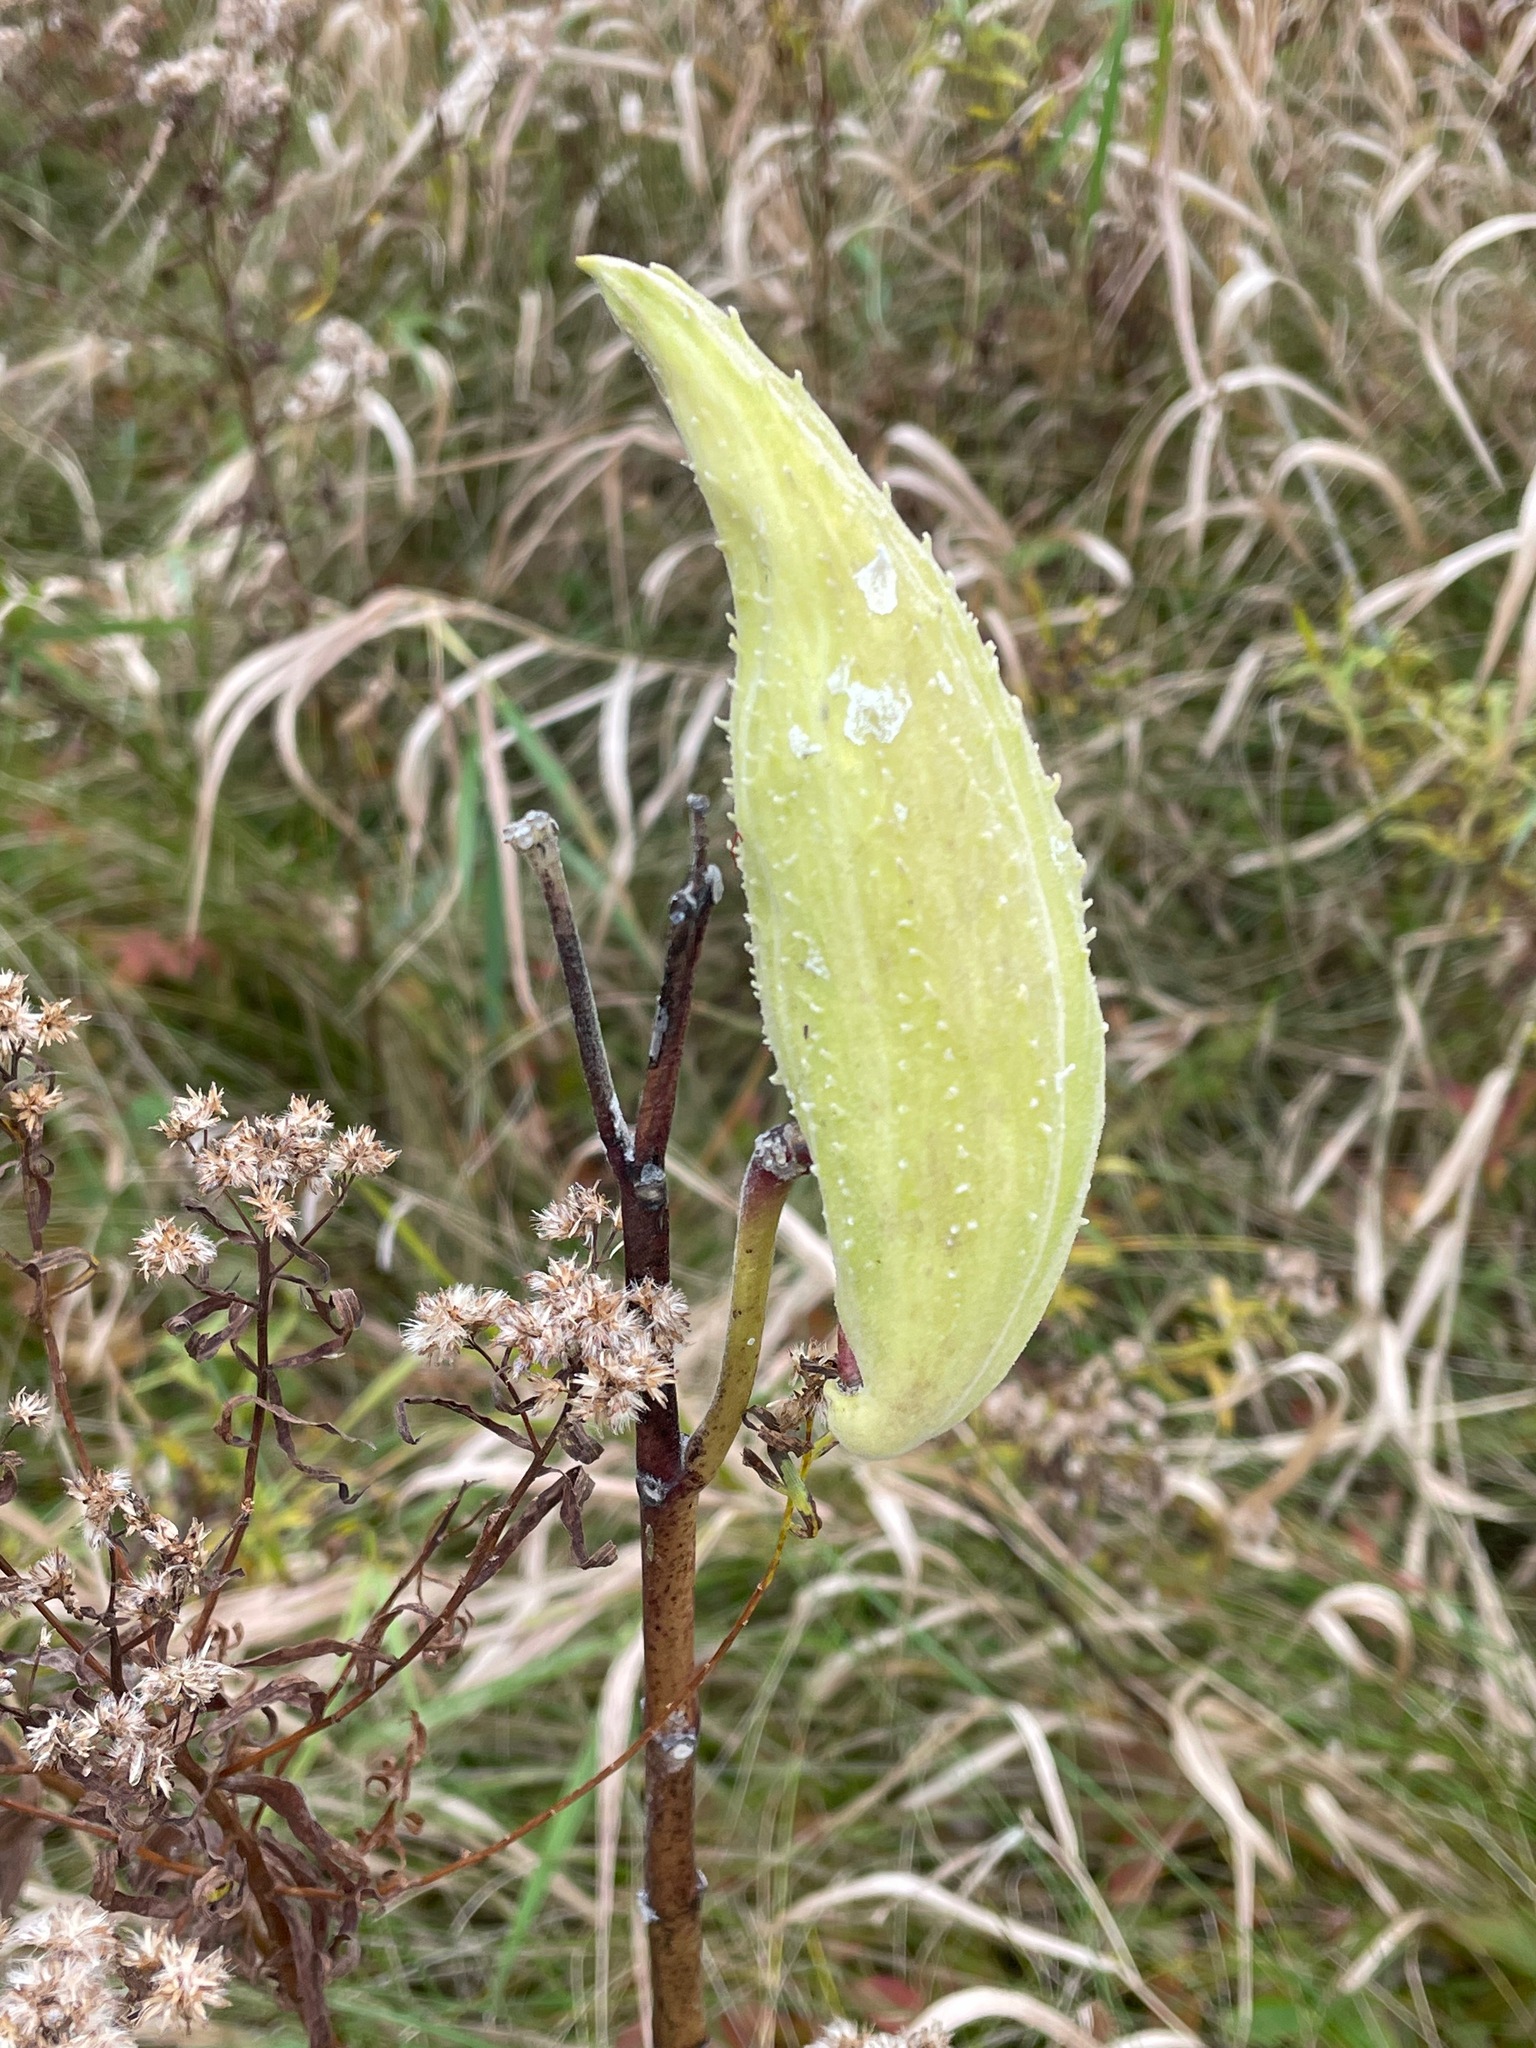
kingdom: Plantae
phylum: Tracheophyta
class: Magnoliopsida
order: Gentianales
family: Apocynaceae
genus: Asclepias
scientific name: Asclepias syriaca
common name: Common milkweed
